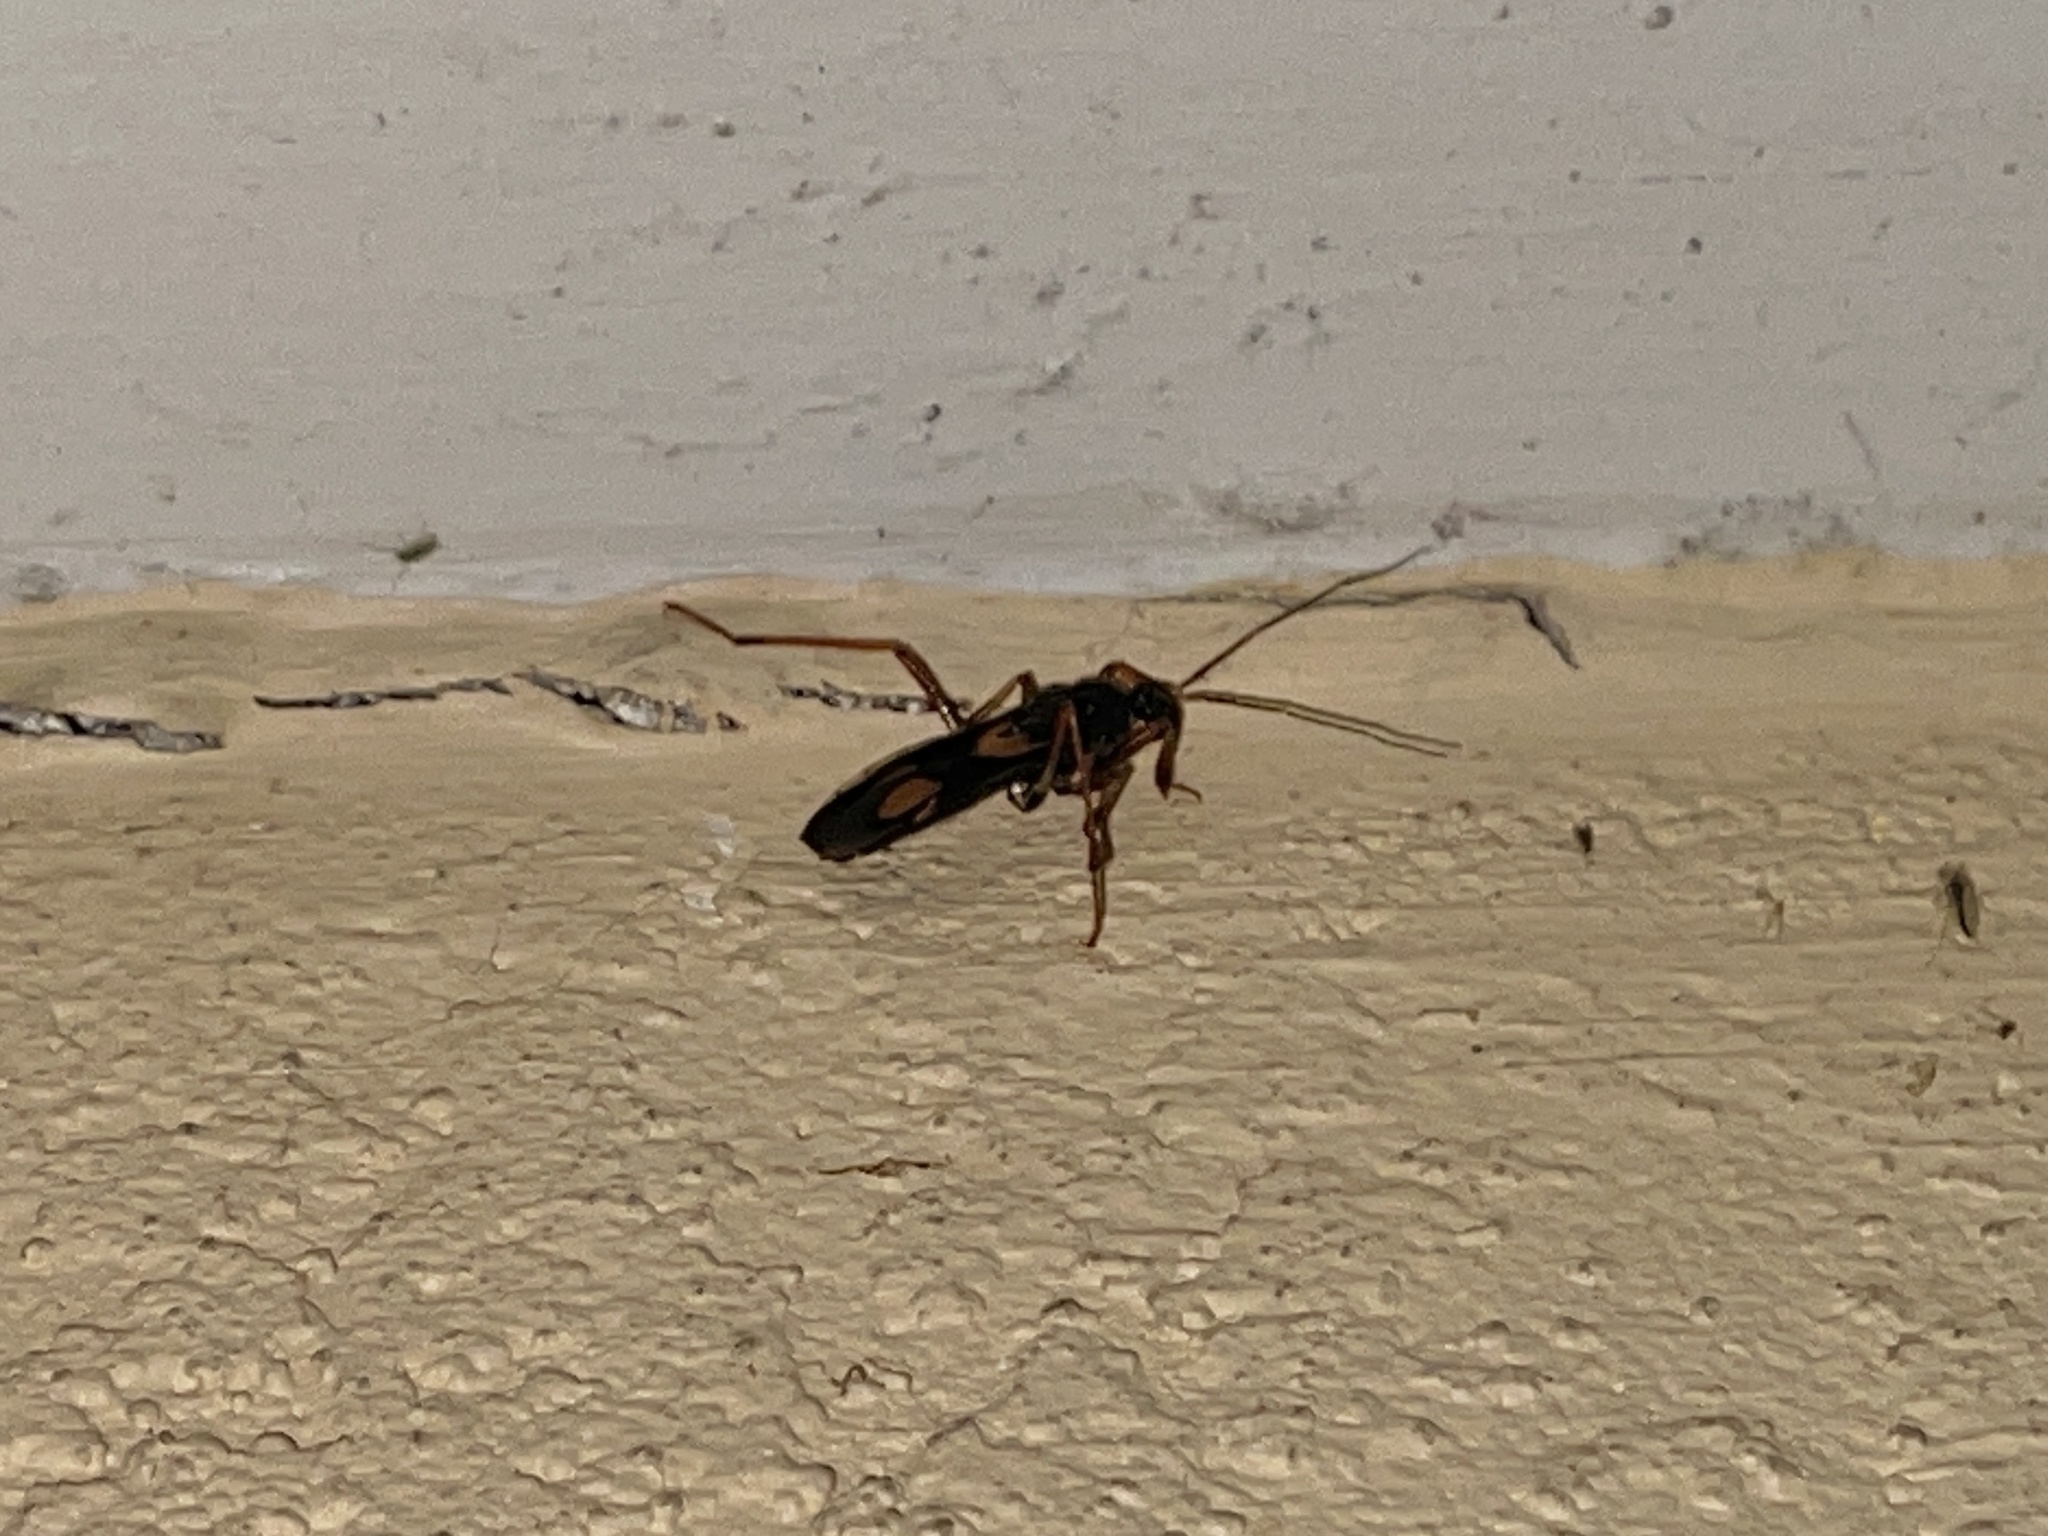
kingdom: Animalia
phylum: Arthropoda
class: Insecta
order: Hemiptera
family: Reduviidae
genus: Rasahus
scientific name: Rasahus hamatus
